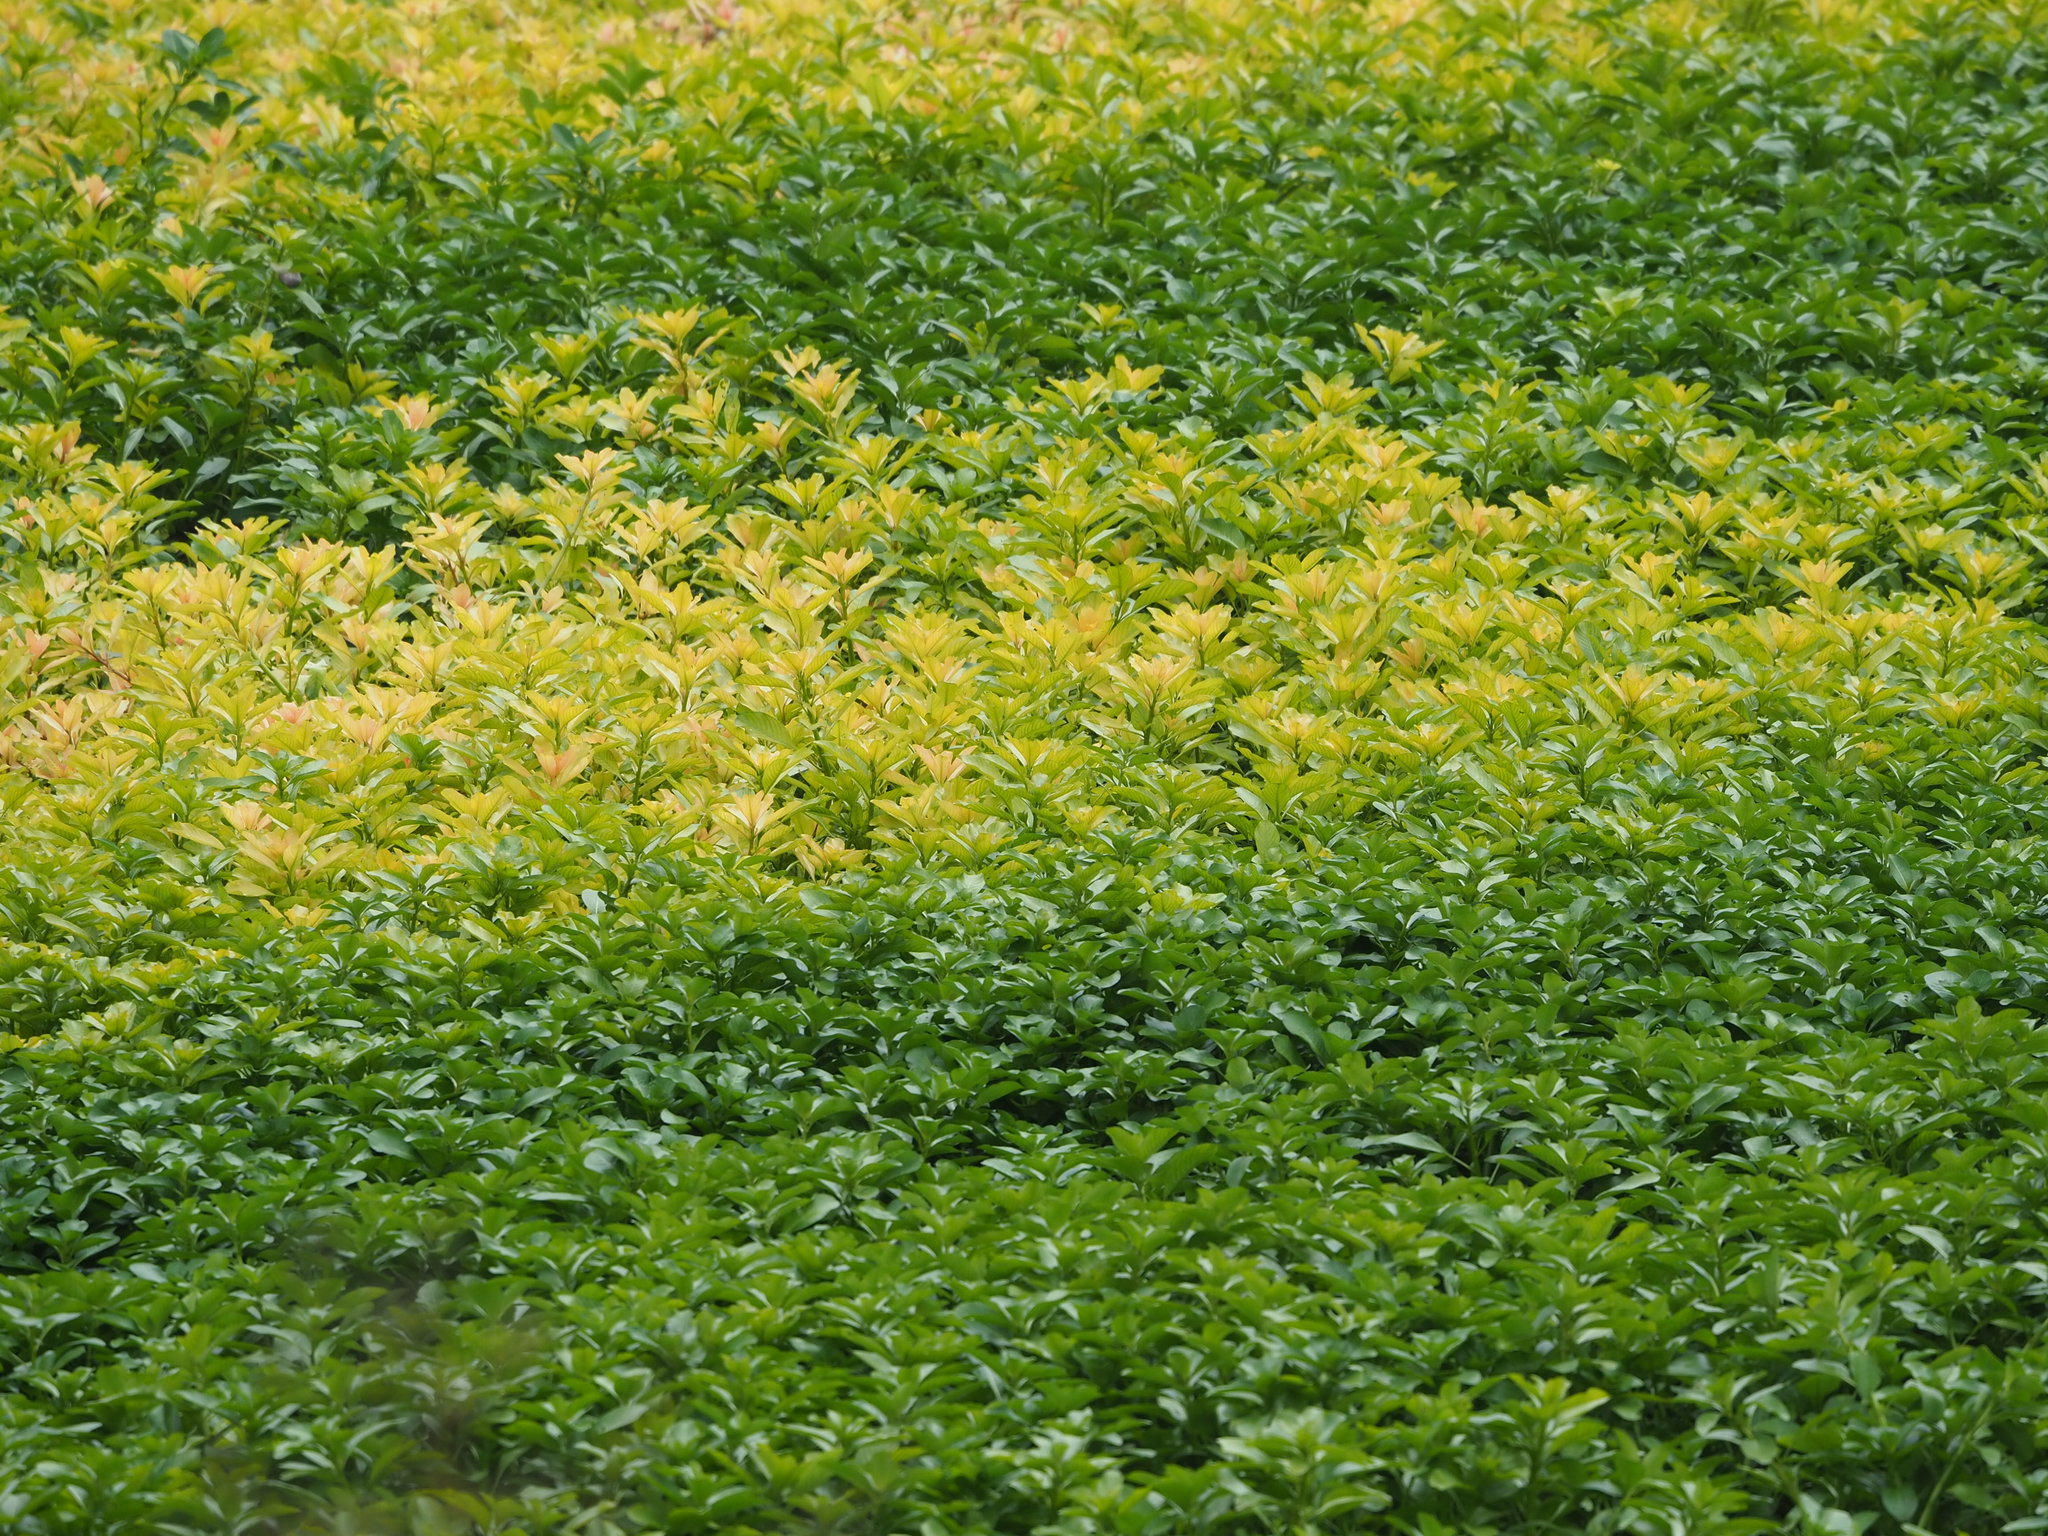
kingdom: Plantae
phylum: Tracheophyta
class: Magnoliopsida
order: Myrtales
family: Onagraceae
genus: Ludwigia
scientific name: Ludwigia taiwanensis
